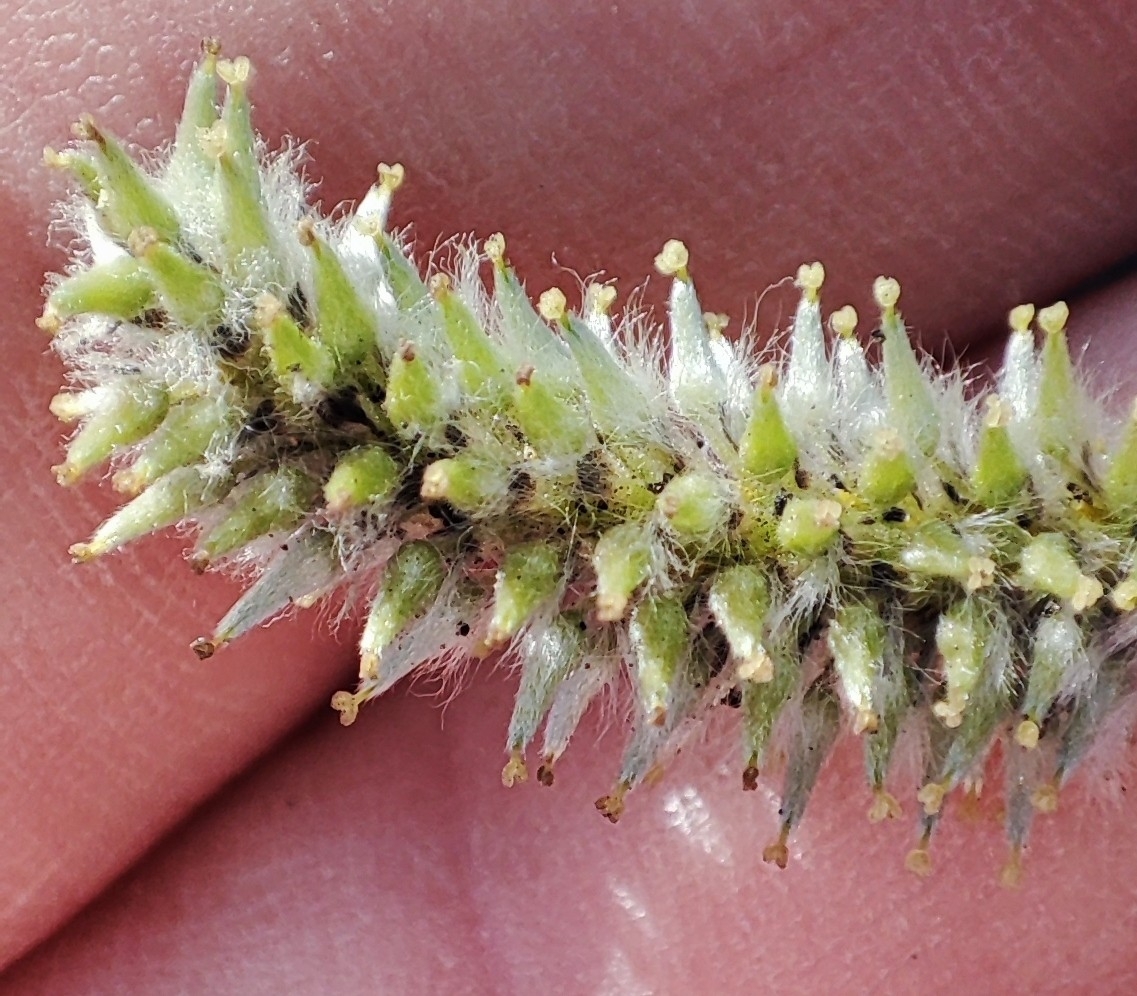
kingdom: Plantae
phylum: Tracheophyta
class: Magnoliopsida
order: Malpighiales
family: Salicaceae
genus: Salix
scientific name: Salix cinerea
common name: Common sallow
